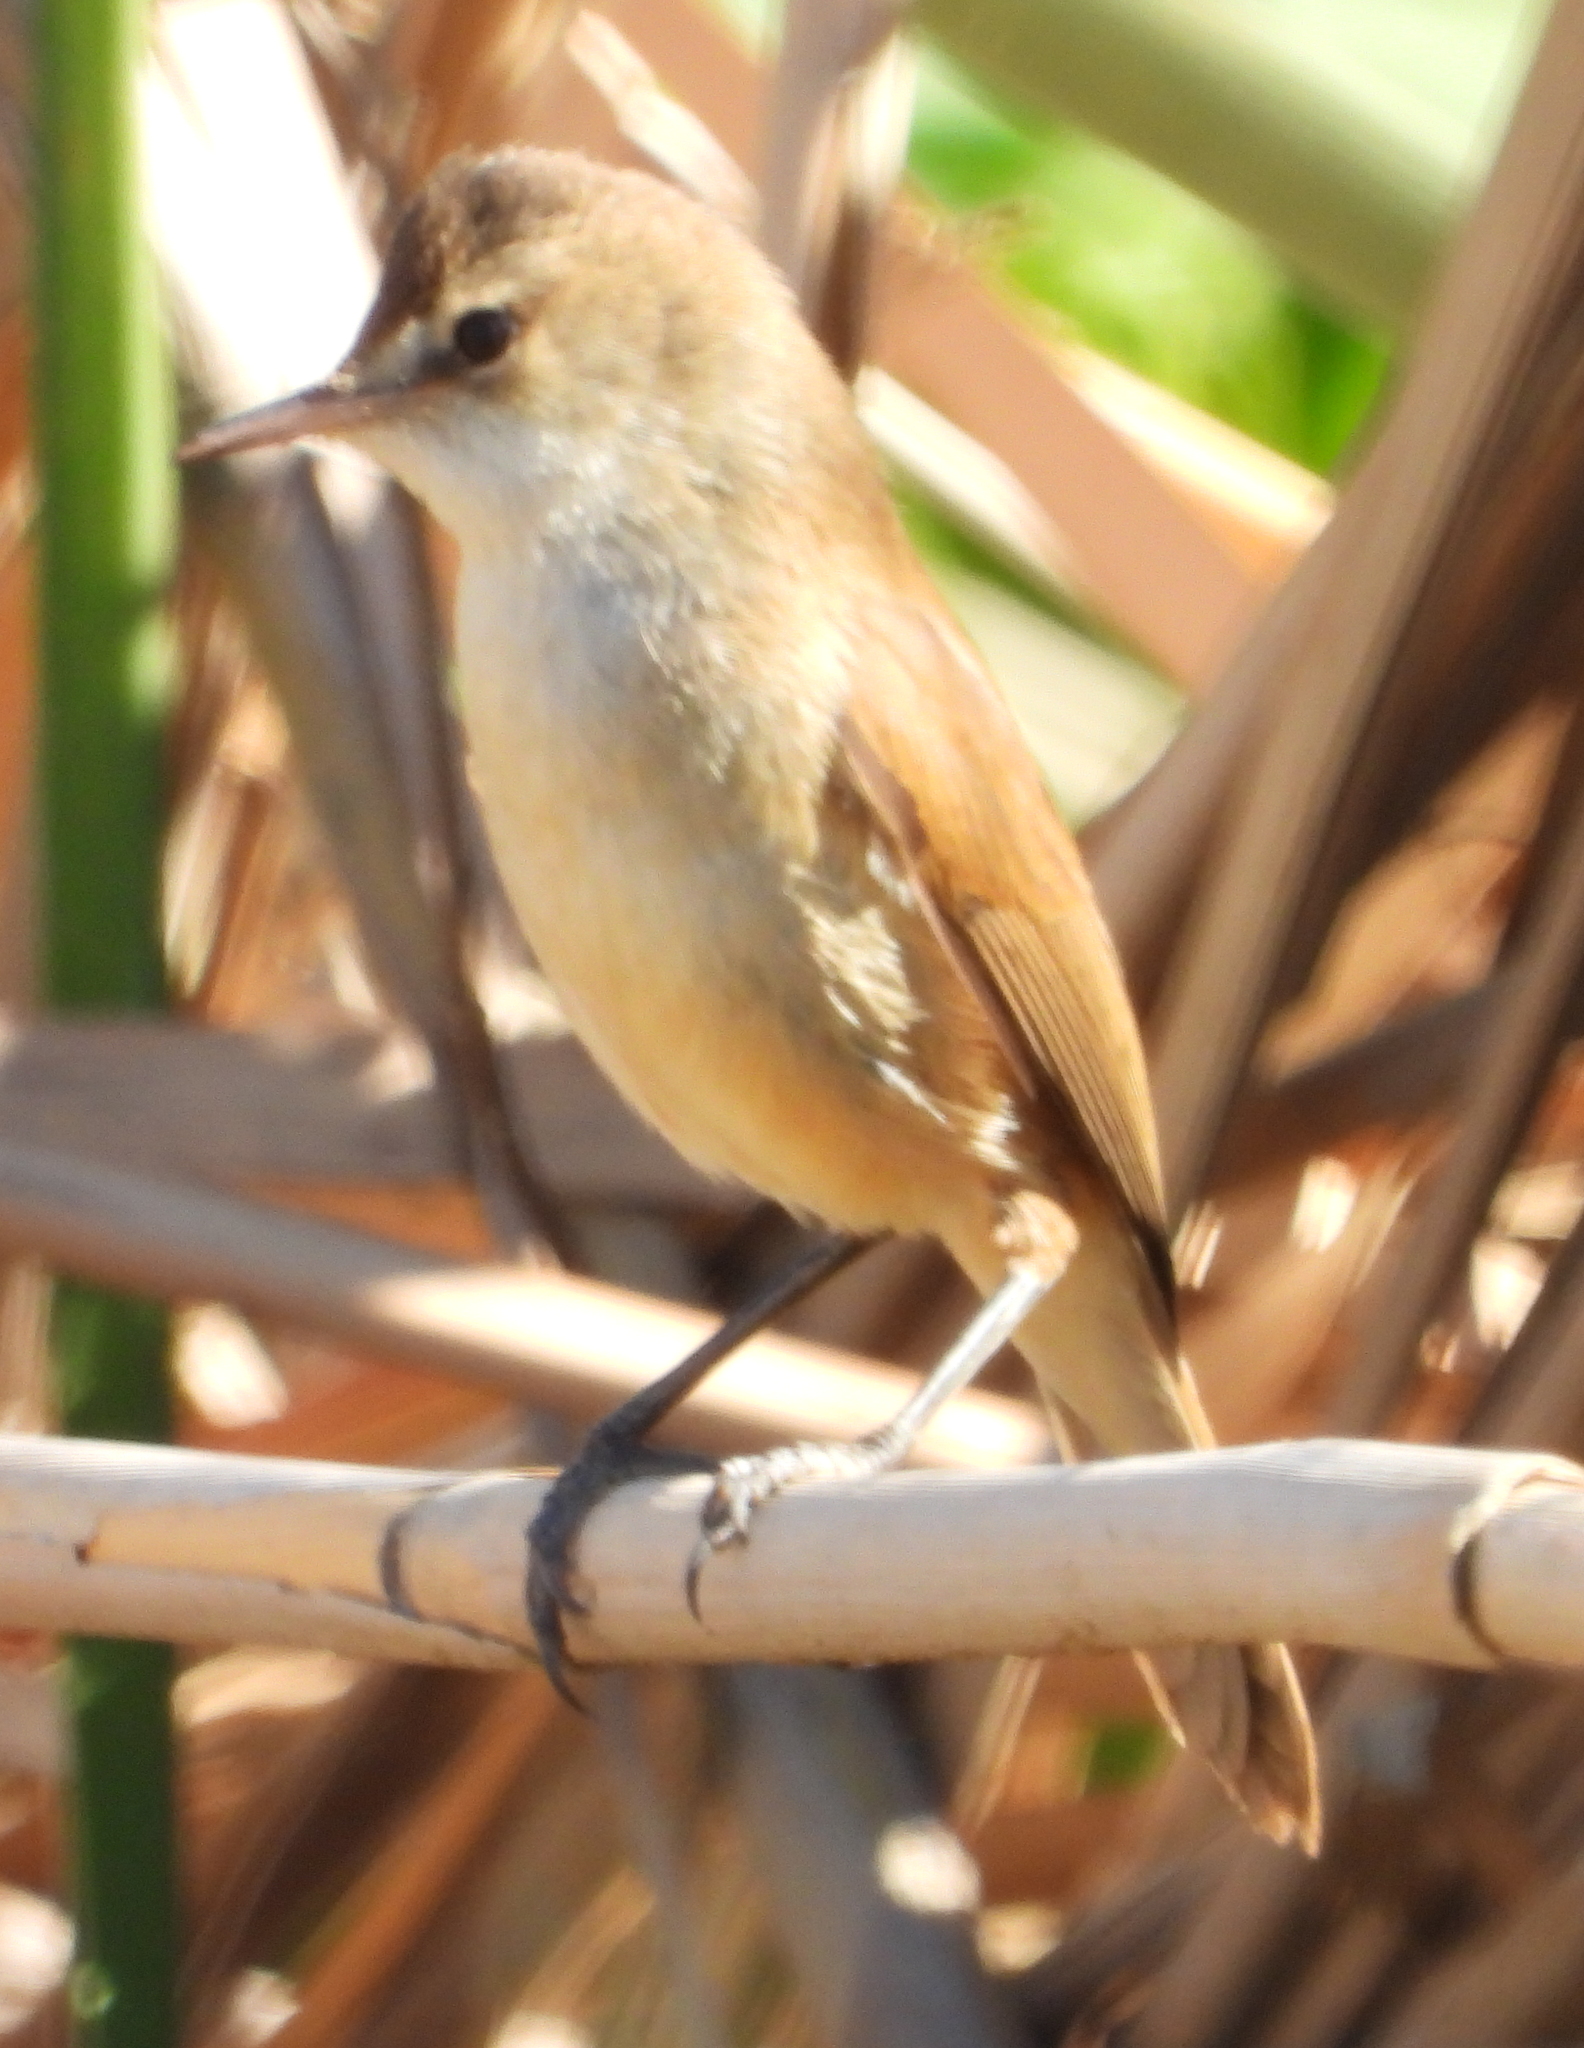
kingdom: Animalia
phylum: Chordata
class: Aves
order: Passeriformes
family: Acrocephalidae
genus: Acrocephalus
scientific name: Acrocephalus gracilirostris
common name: Lesser swamp warbler
